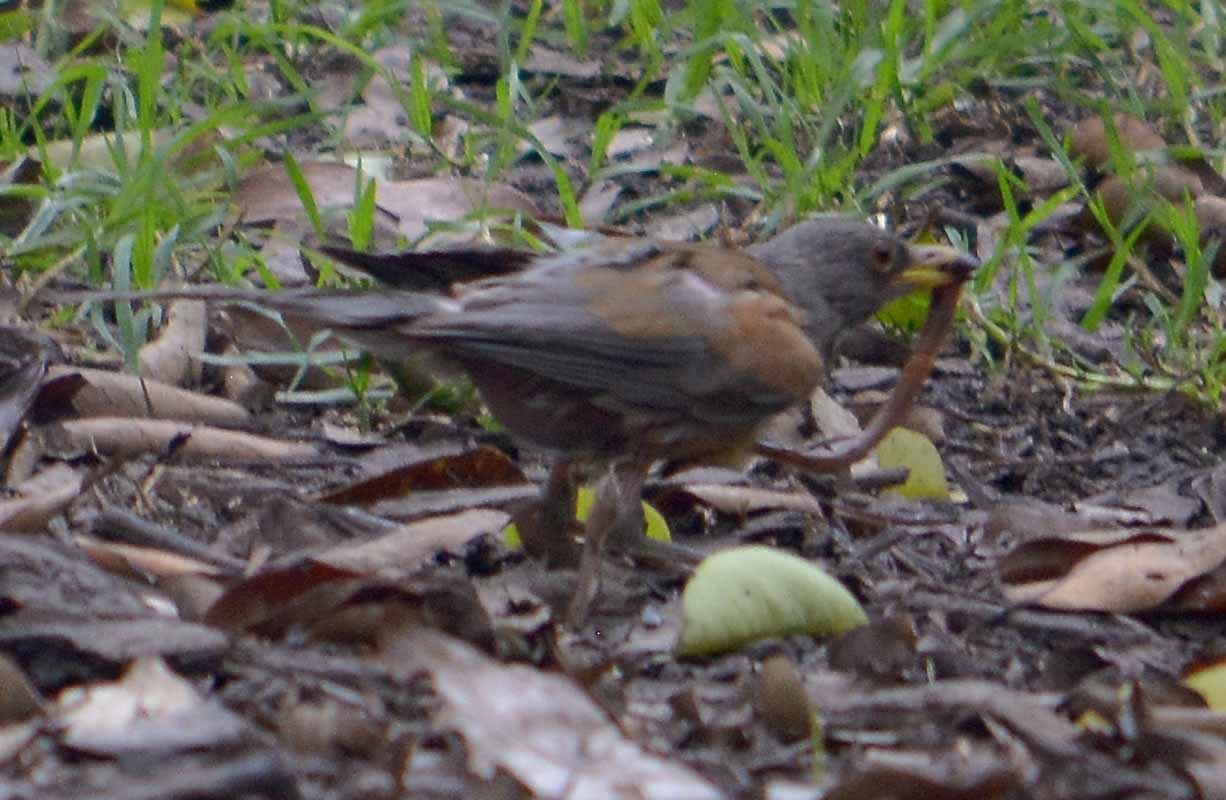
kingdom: Animalia
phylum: Chordata
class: Aves
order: Passeriformes
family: Turdidae
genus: Turdus
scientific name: Turdus rufopalliatus
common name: Rufous-backed robin
